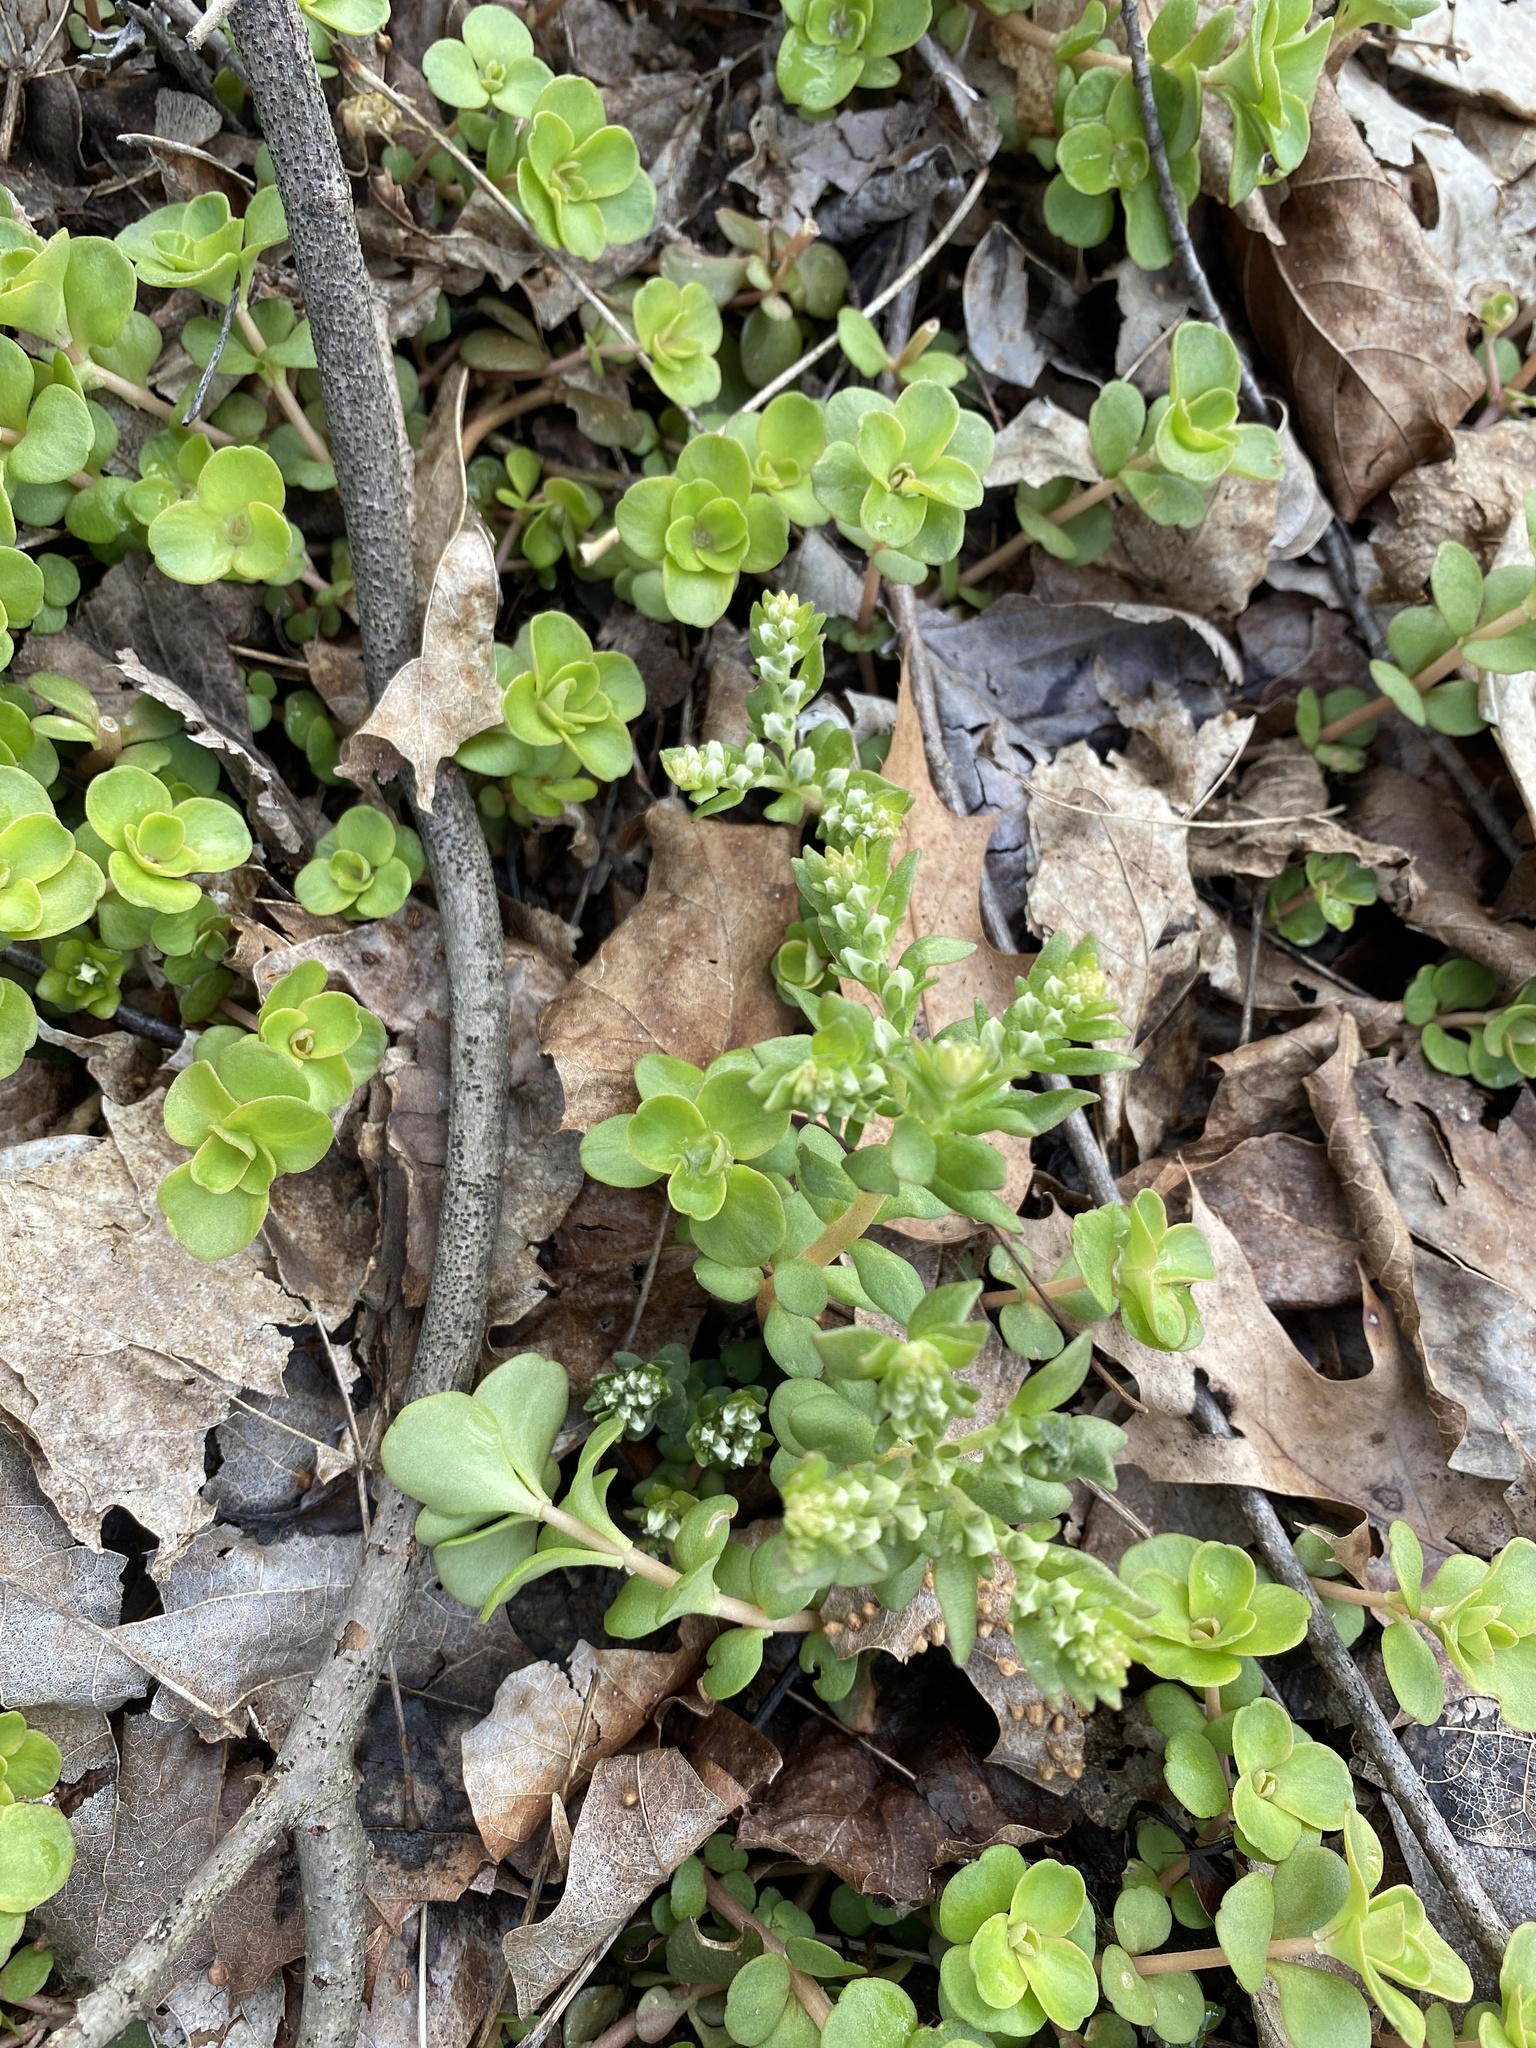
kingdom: Plantae
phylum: Tracheophyta
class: Magnoliopsida
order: Saxifragales
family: Crassulaceae
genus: Sedum
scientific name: Sedum ternatum
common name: Wild stonecrop
